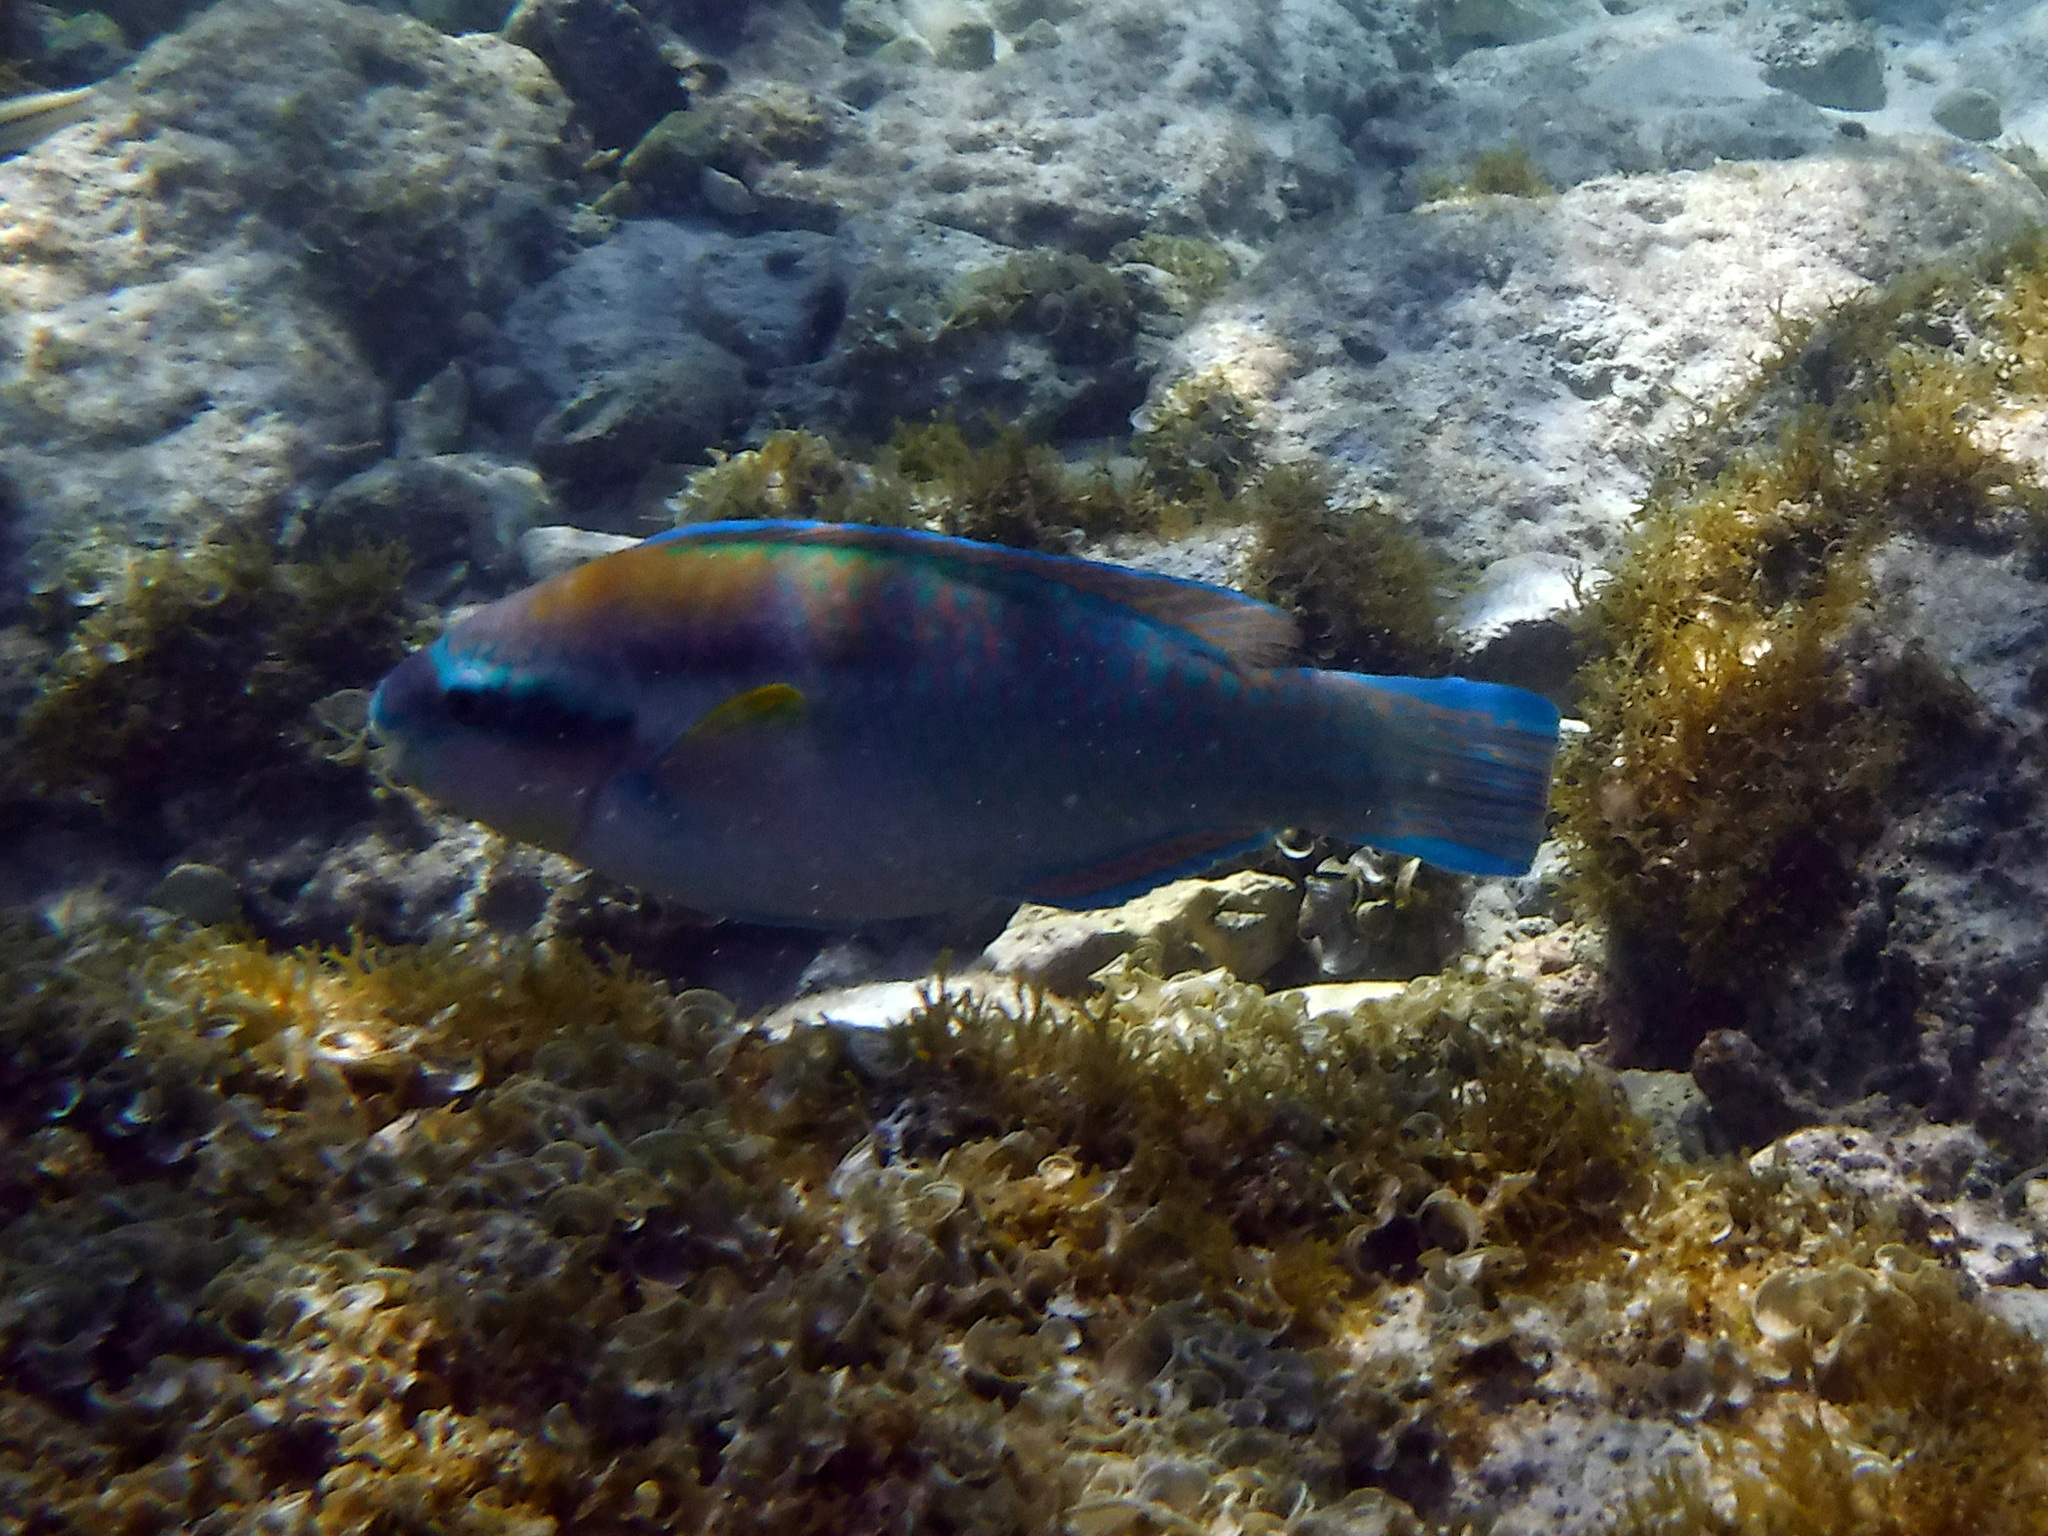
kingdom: Animalia
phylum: Chordata
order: Perciformes
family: Scaridae
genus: Scarus
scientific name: Scarus iseri
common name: Striped parrotfish
